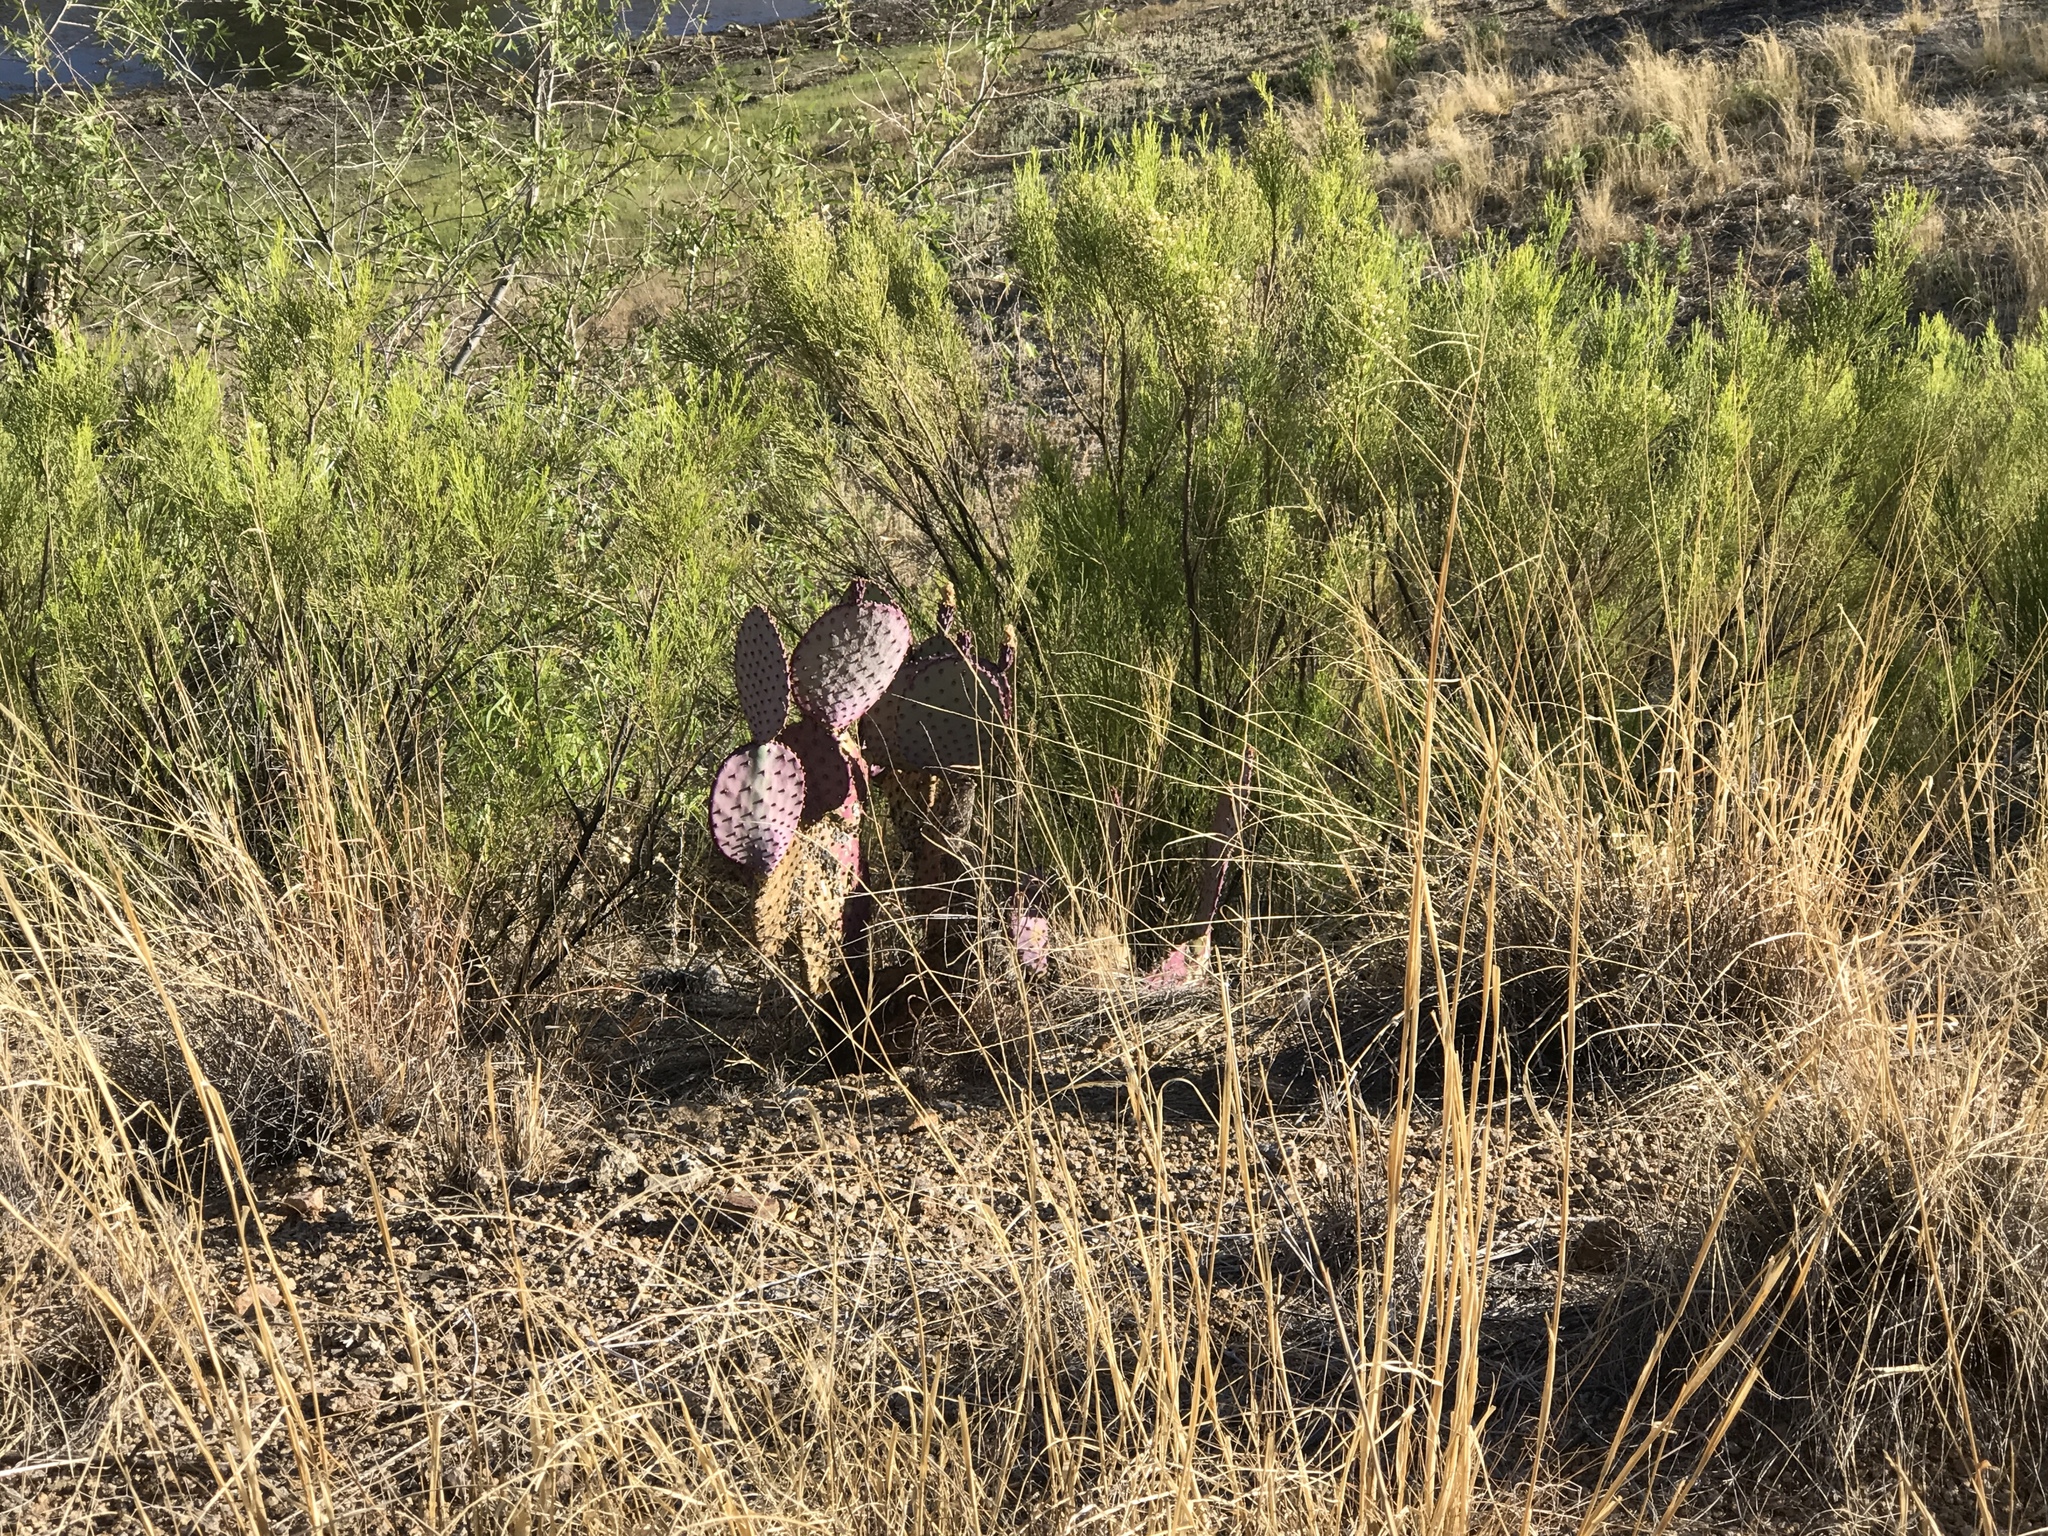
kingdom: Plantae
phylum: Tracheophyta
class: Magnoliopsida
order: Caryophyllales
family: Cactaceae
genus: Opuntia
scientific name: Opuntia macrocentra
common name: Purple prickly-pear
